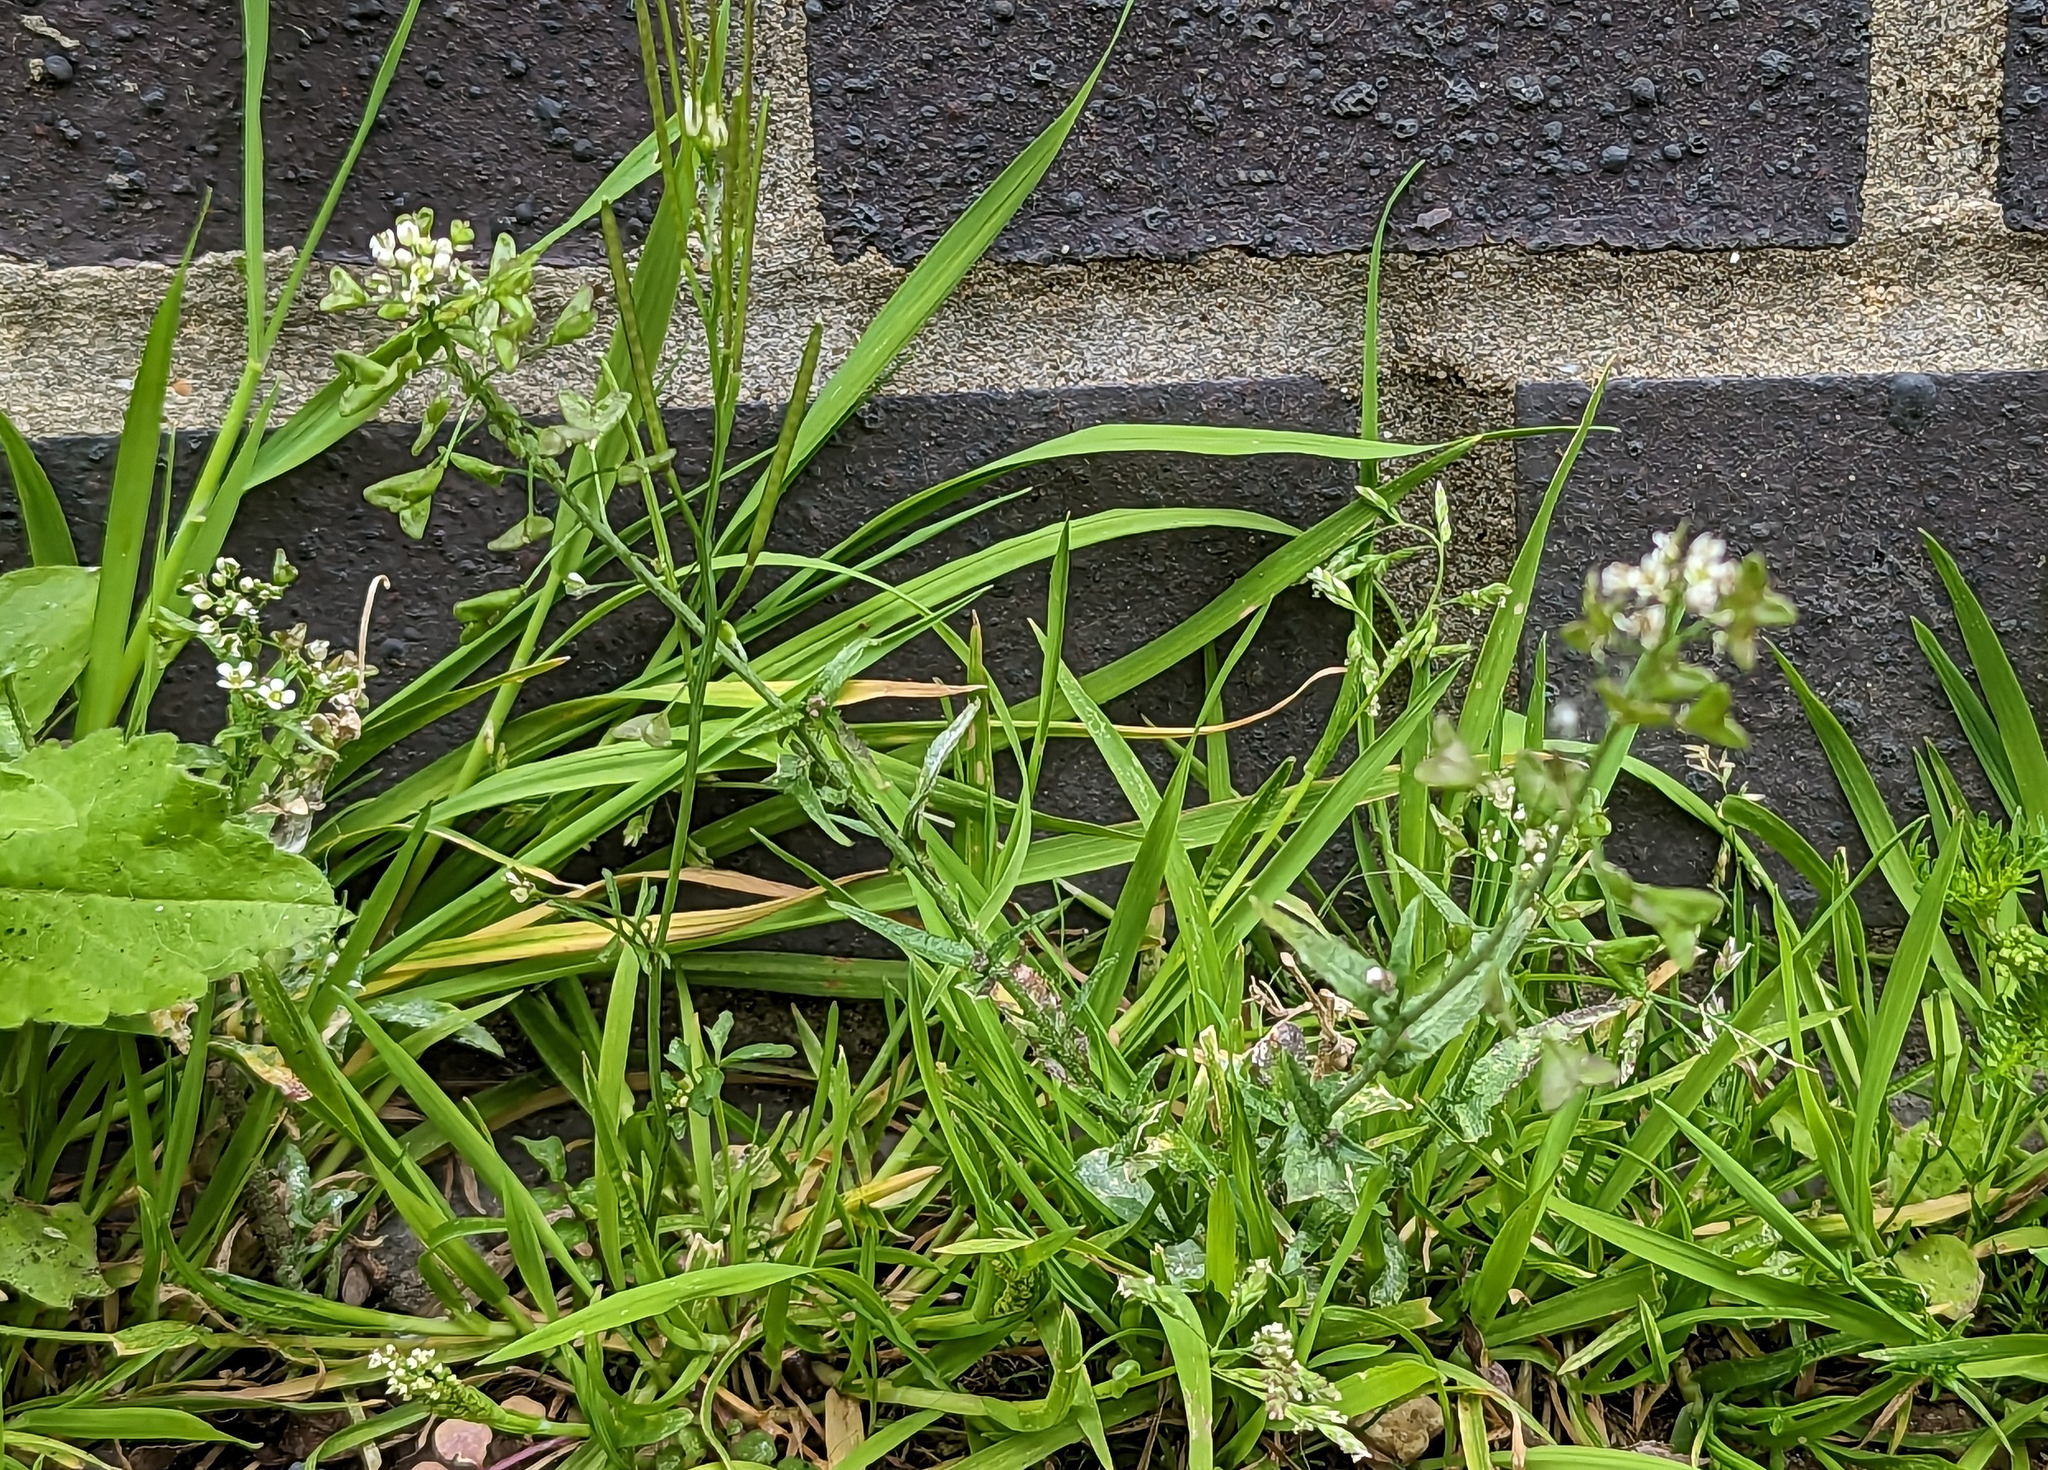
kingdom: Plantae
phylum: Tracheophyta
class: Magnoliopsida
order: Brassicales
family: Brassicaceae
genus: Capsella
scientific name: Capsella bursa-pastoris
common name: Shepherd's purse
